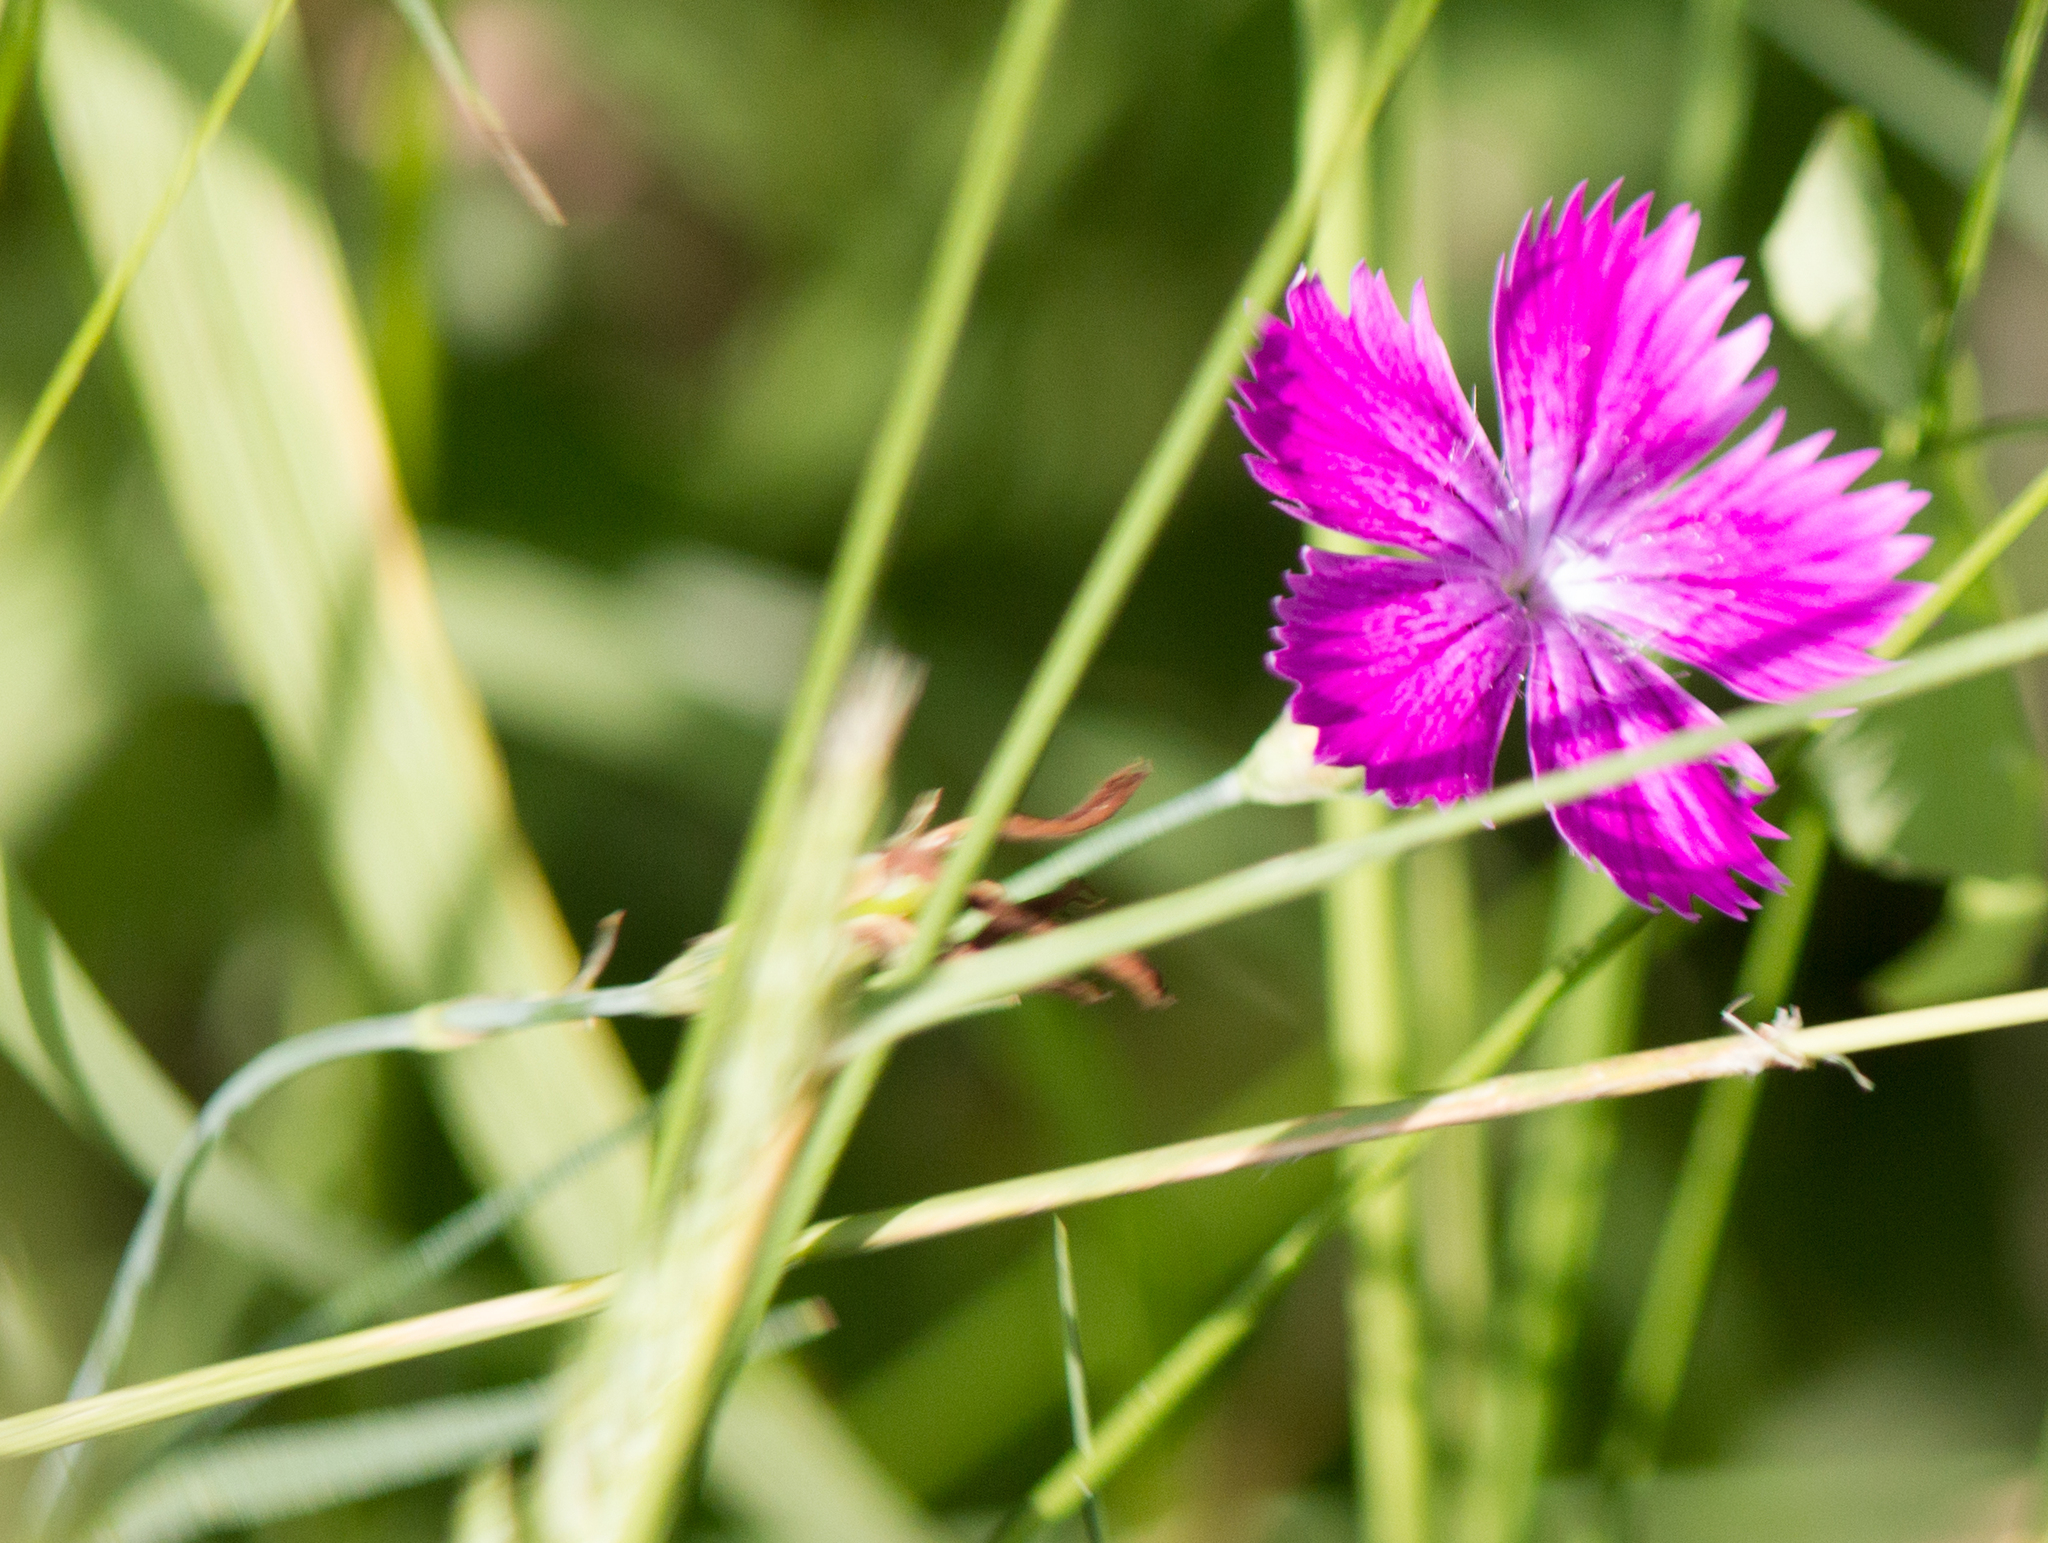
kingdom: Plantae
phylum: Tracheophyta
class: Magnoliopsida
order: Caryophyllales
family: Caryophyllaceae
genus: Dianthus
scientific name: Dianthus chinensis
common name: Rainbow pink
